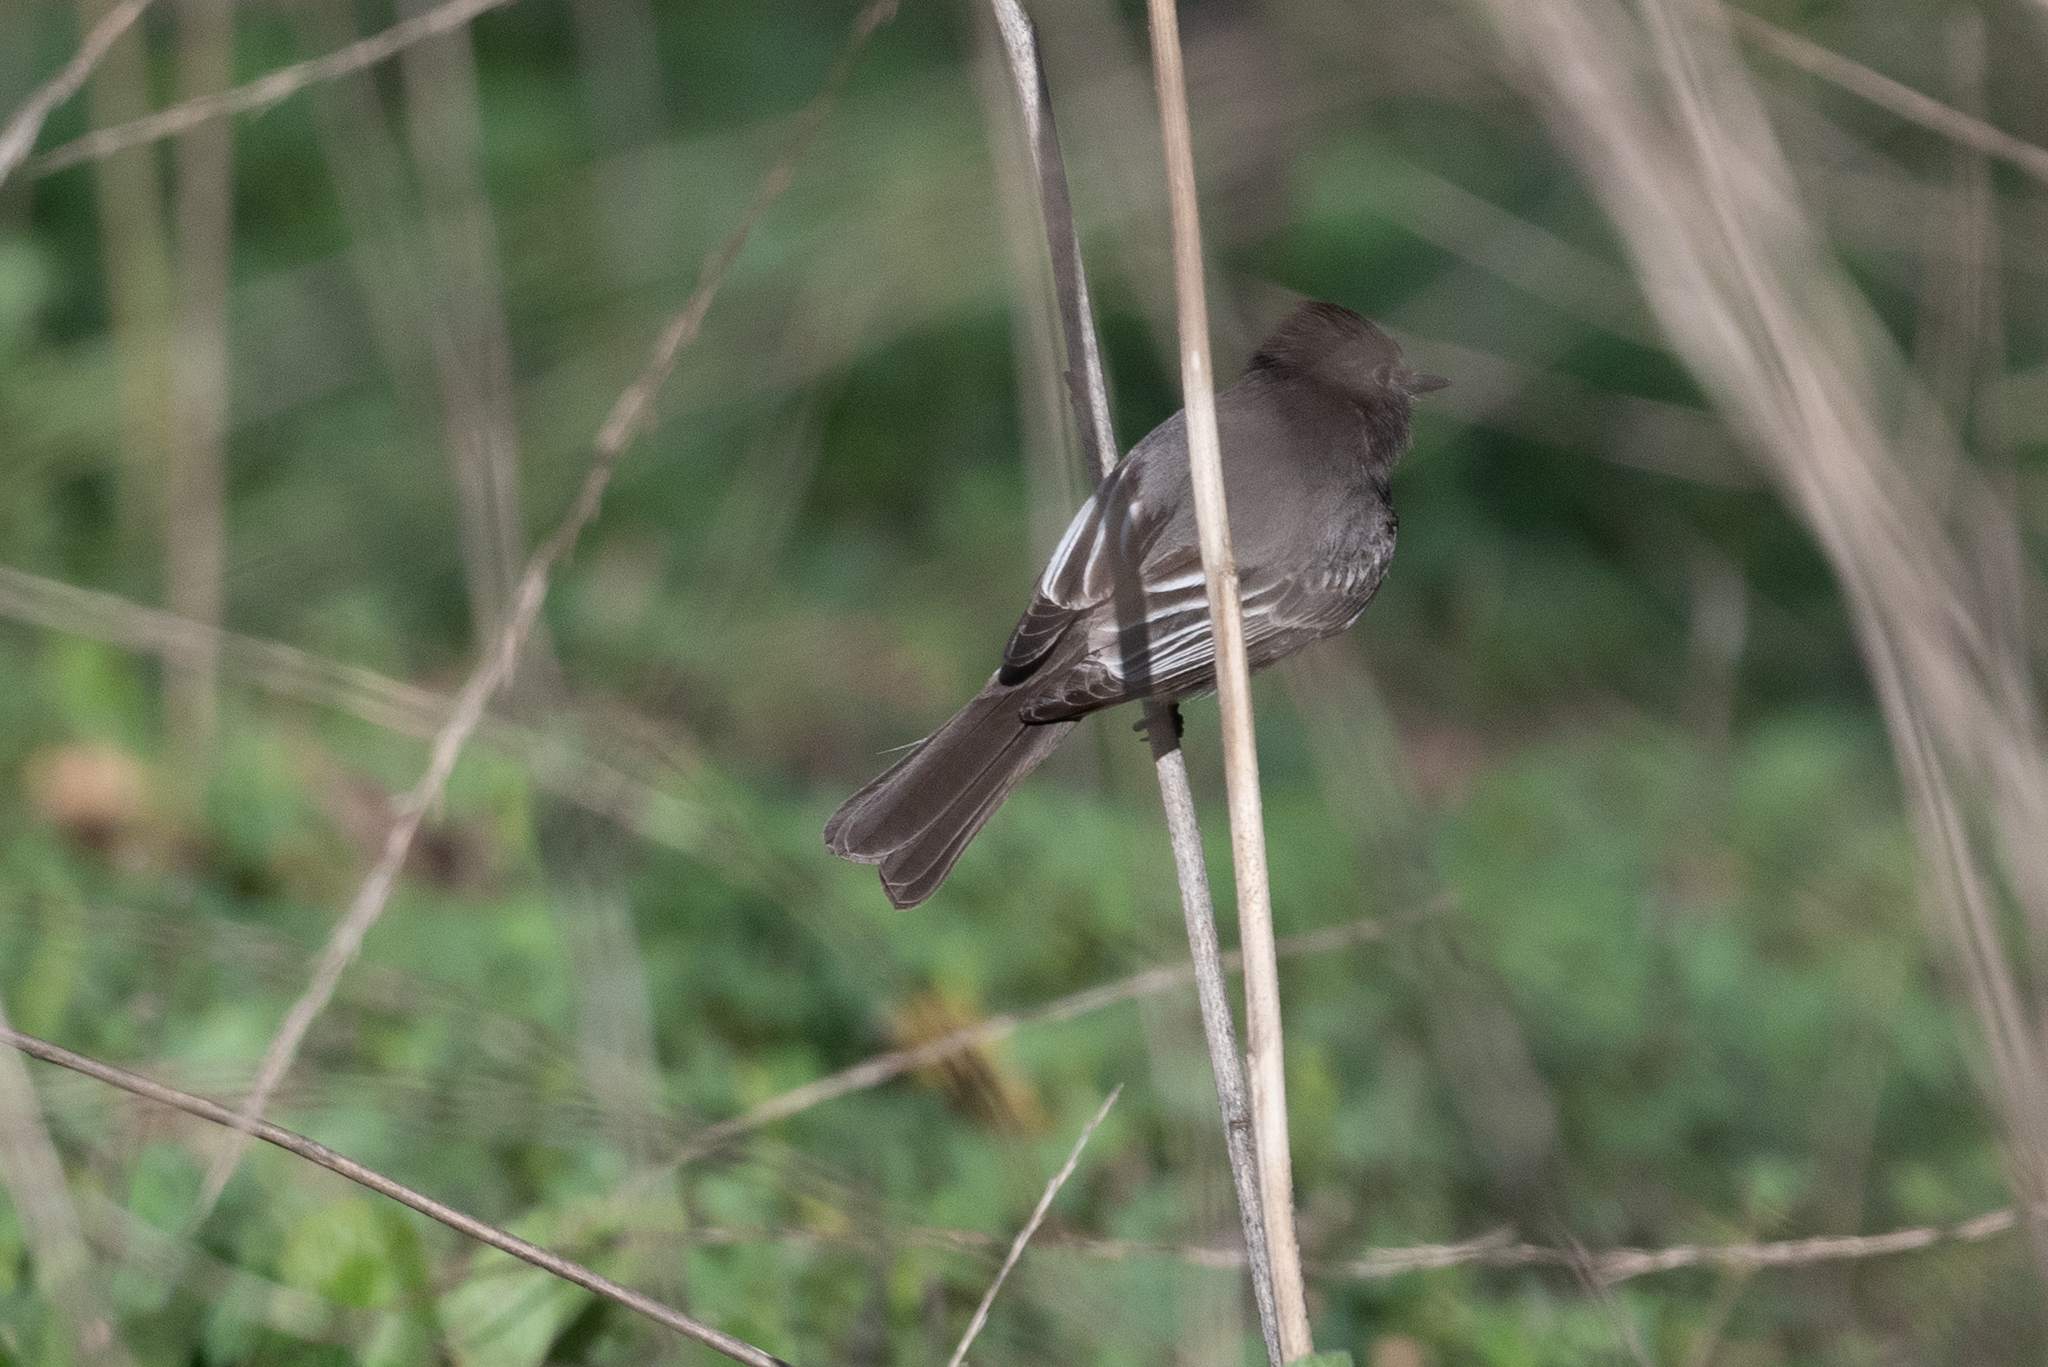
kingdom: Animalia
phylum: Chordata
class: Aves
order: Passeriformes
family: Tyrannidae
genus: Sayornis
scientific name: Sayornis nigricans
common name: Black phoebe
